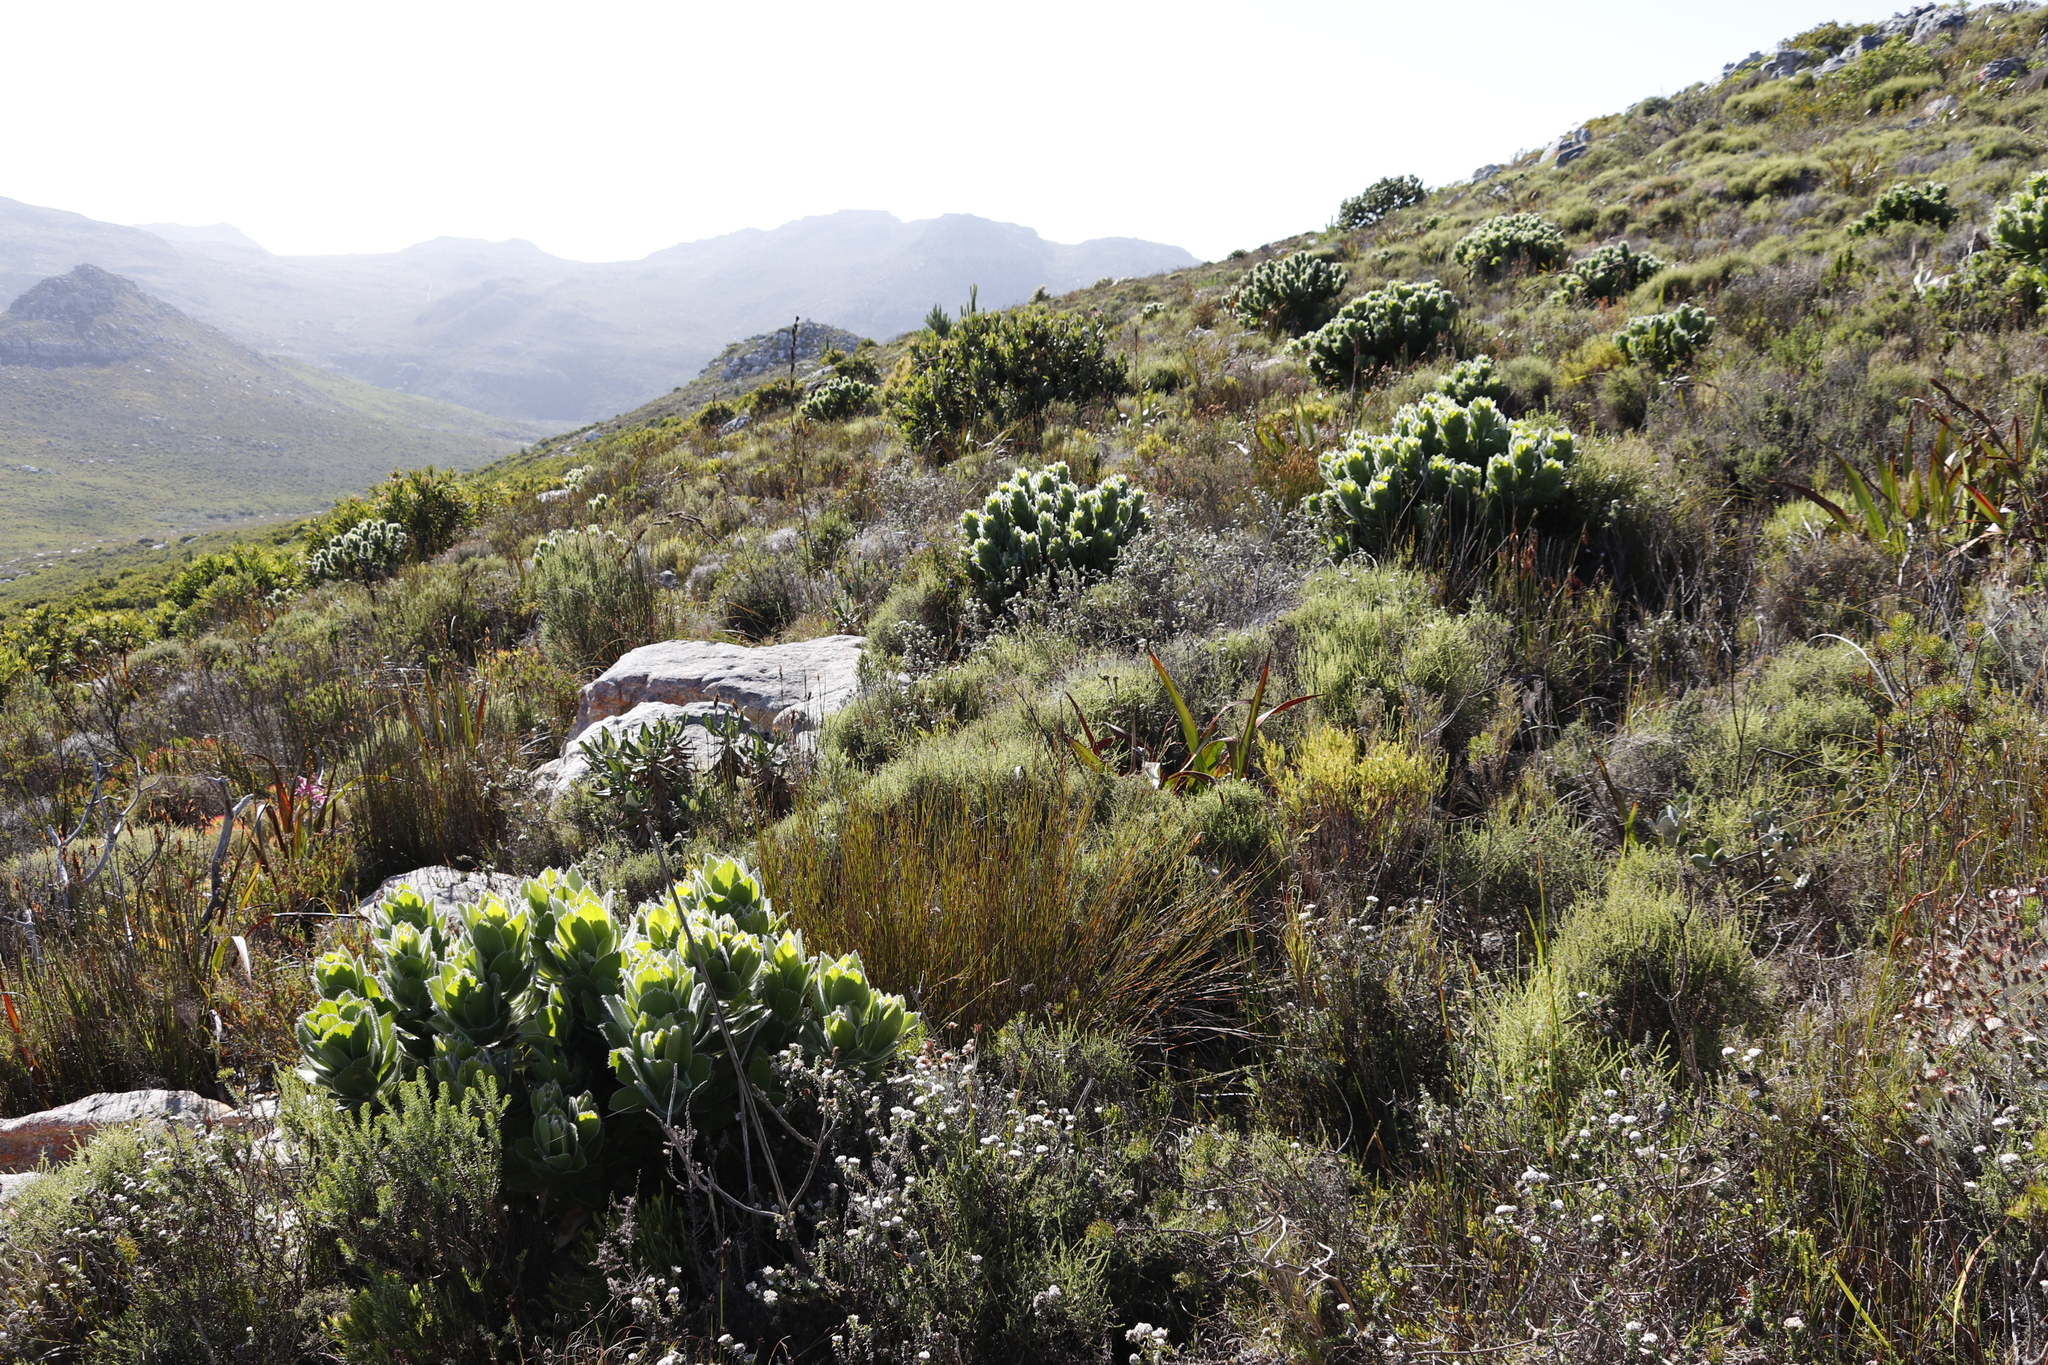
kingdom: Plantae
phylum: Tracheophyta
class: Magnoliopsida
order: Proteales
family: Proteaceae
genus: Leucospermum
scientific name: Leucospermum conocarpodendron
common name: Tree pincushion
